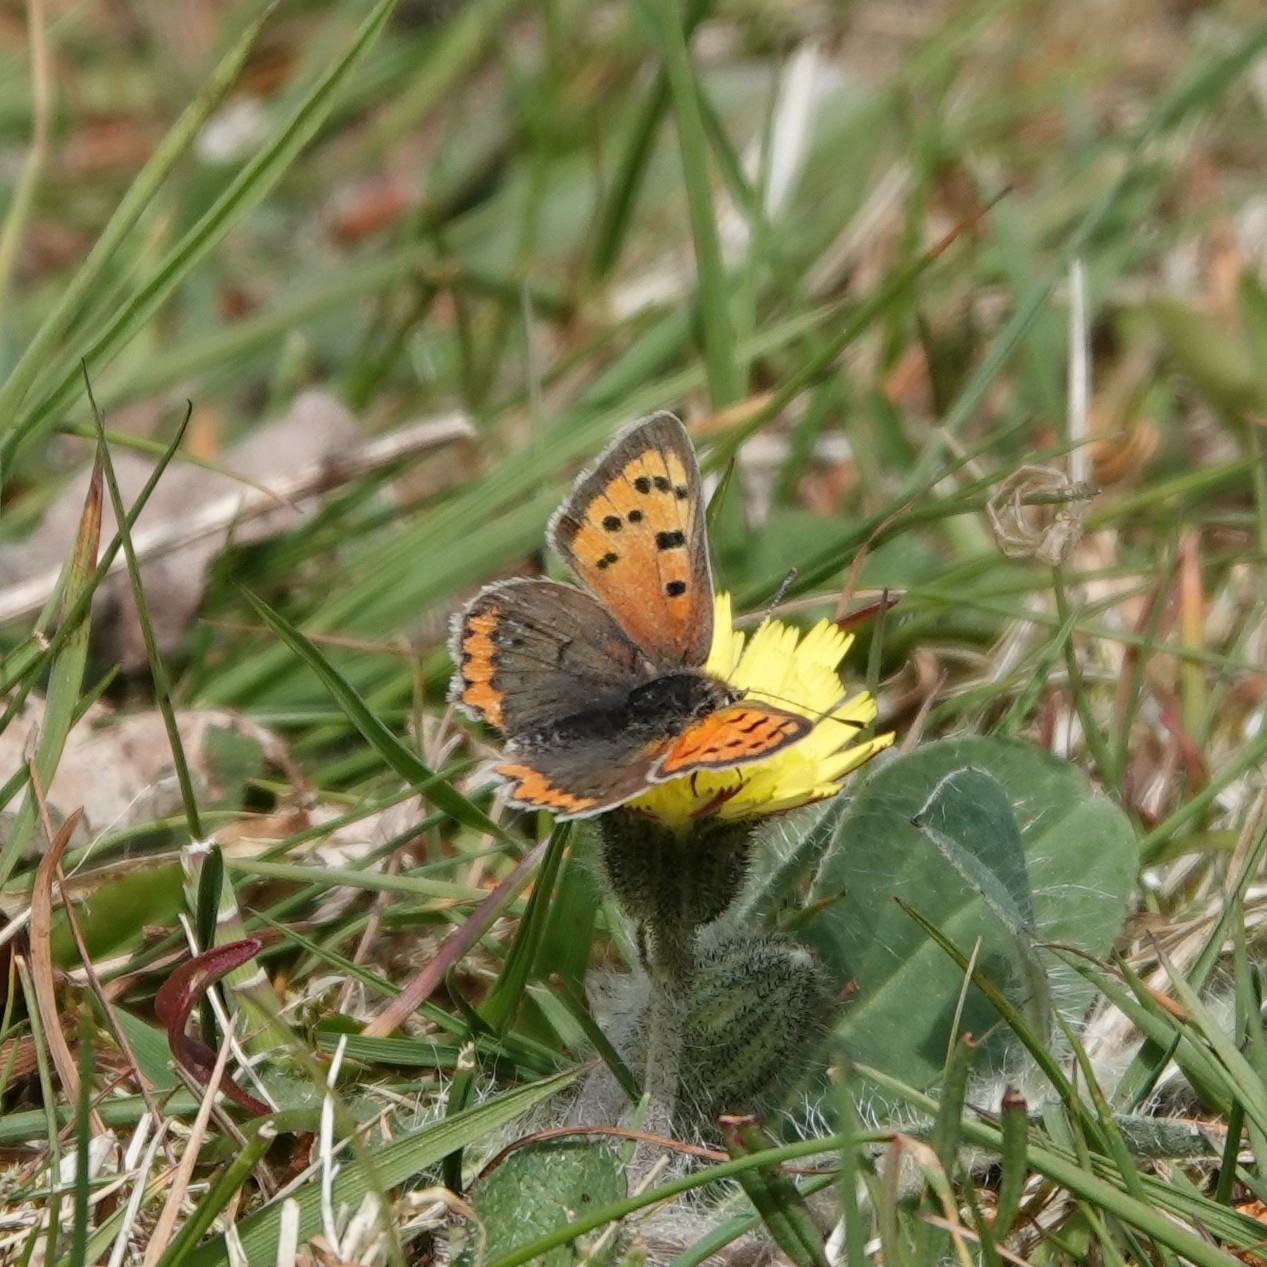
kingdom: Animalia
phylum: Arthropoda
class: Insecta
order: Lepidoptera
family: Lycaenidae
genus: Lycaena
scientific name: Lycaena phlaeas
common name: Small copper
